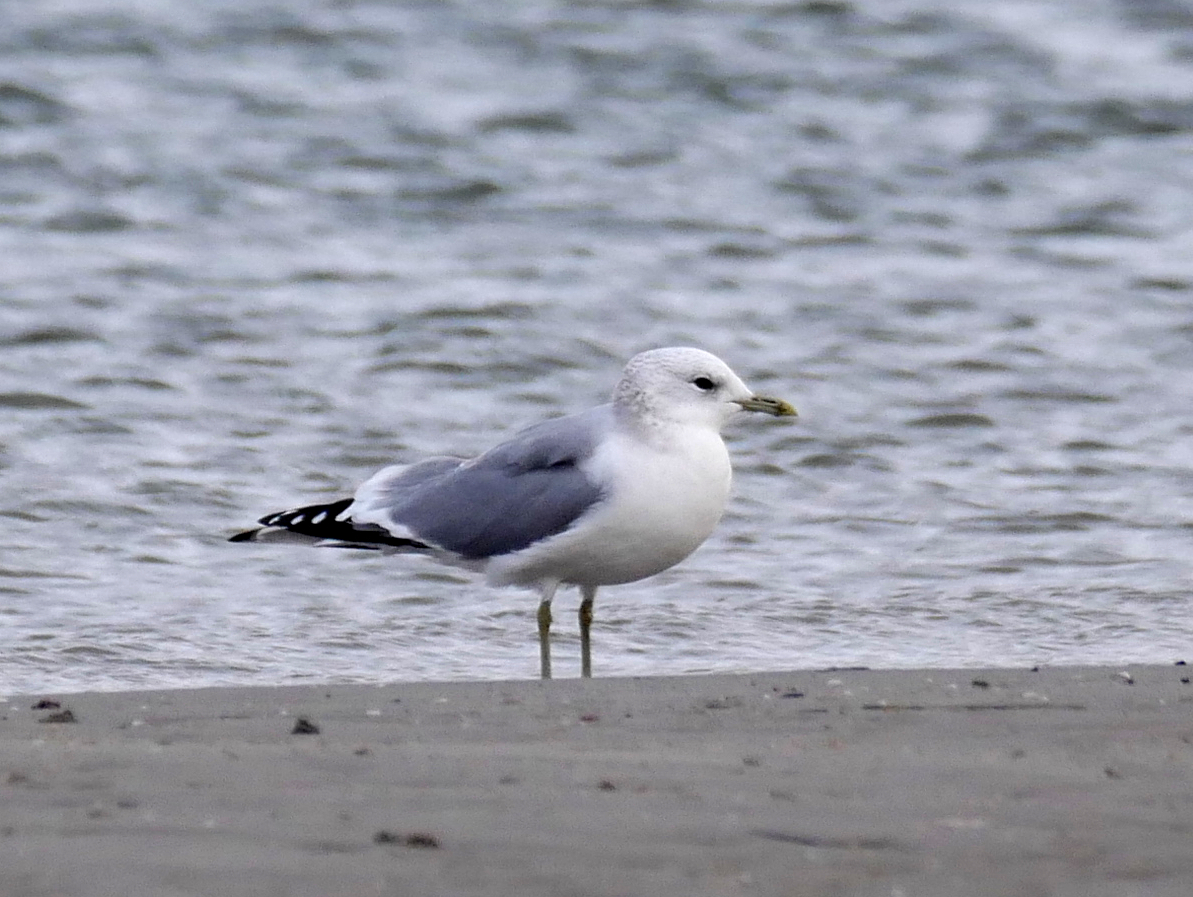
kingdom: Animalia
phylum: Chordata
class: Aves
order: Charadriiformes
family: Laridae
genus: Larus
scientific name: Larus canus
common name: Mew gull
